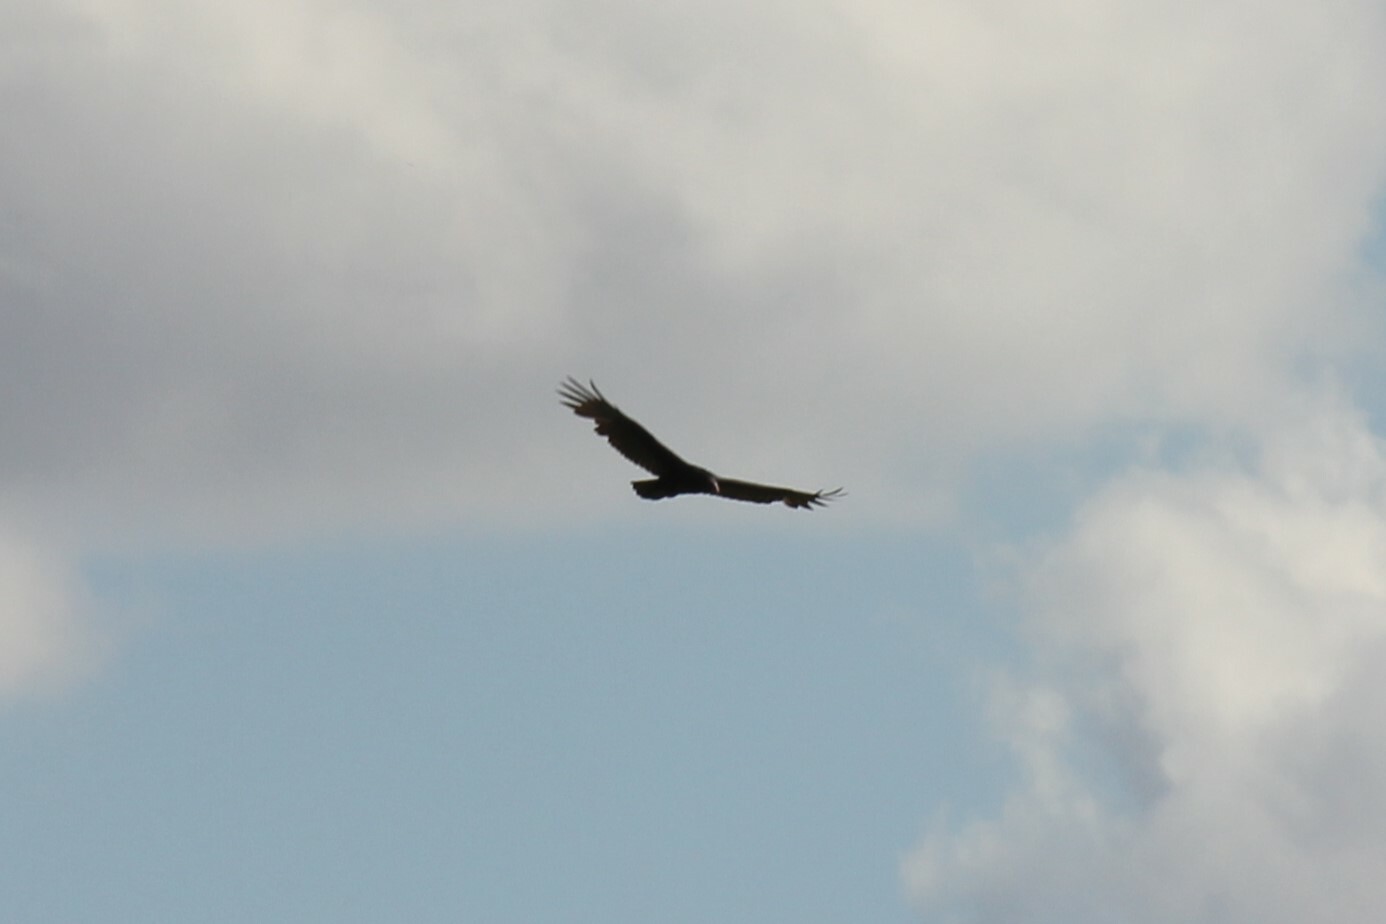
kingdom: Animalia
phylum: Chordata
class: Aves
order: Accipitriformes
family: Cathartidae
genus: Cathartes
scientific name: Cathartes aura
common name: Turkey vulture
